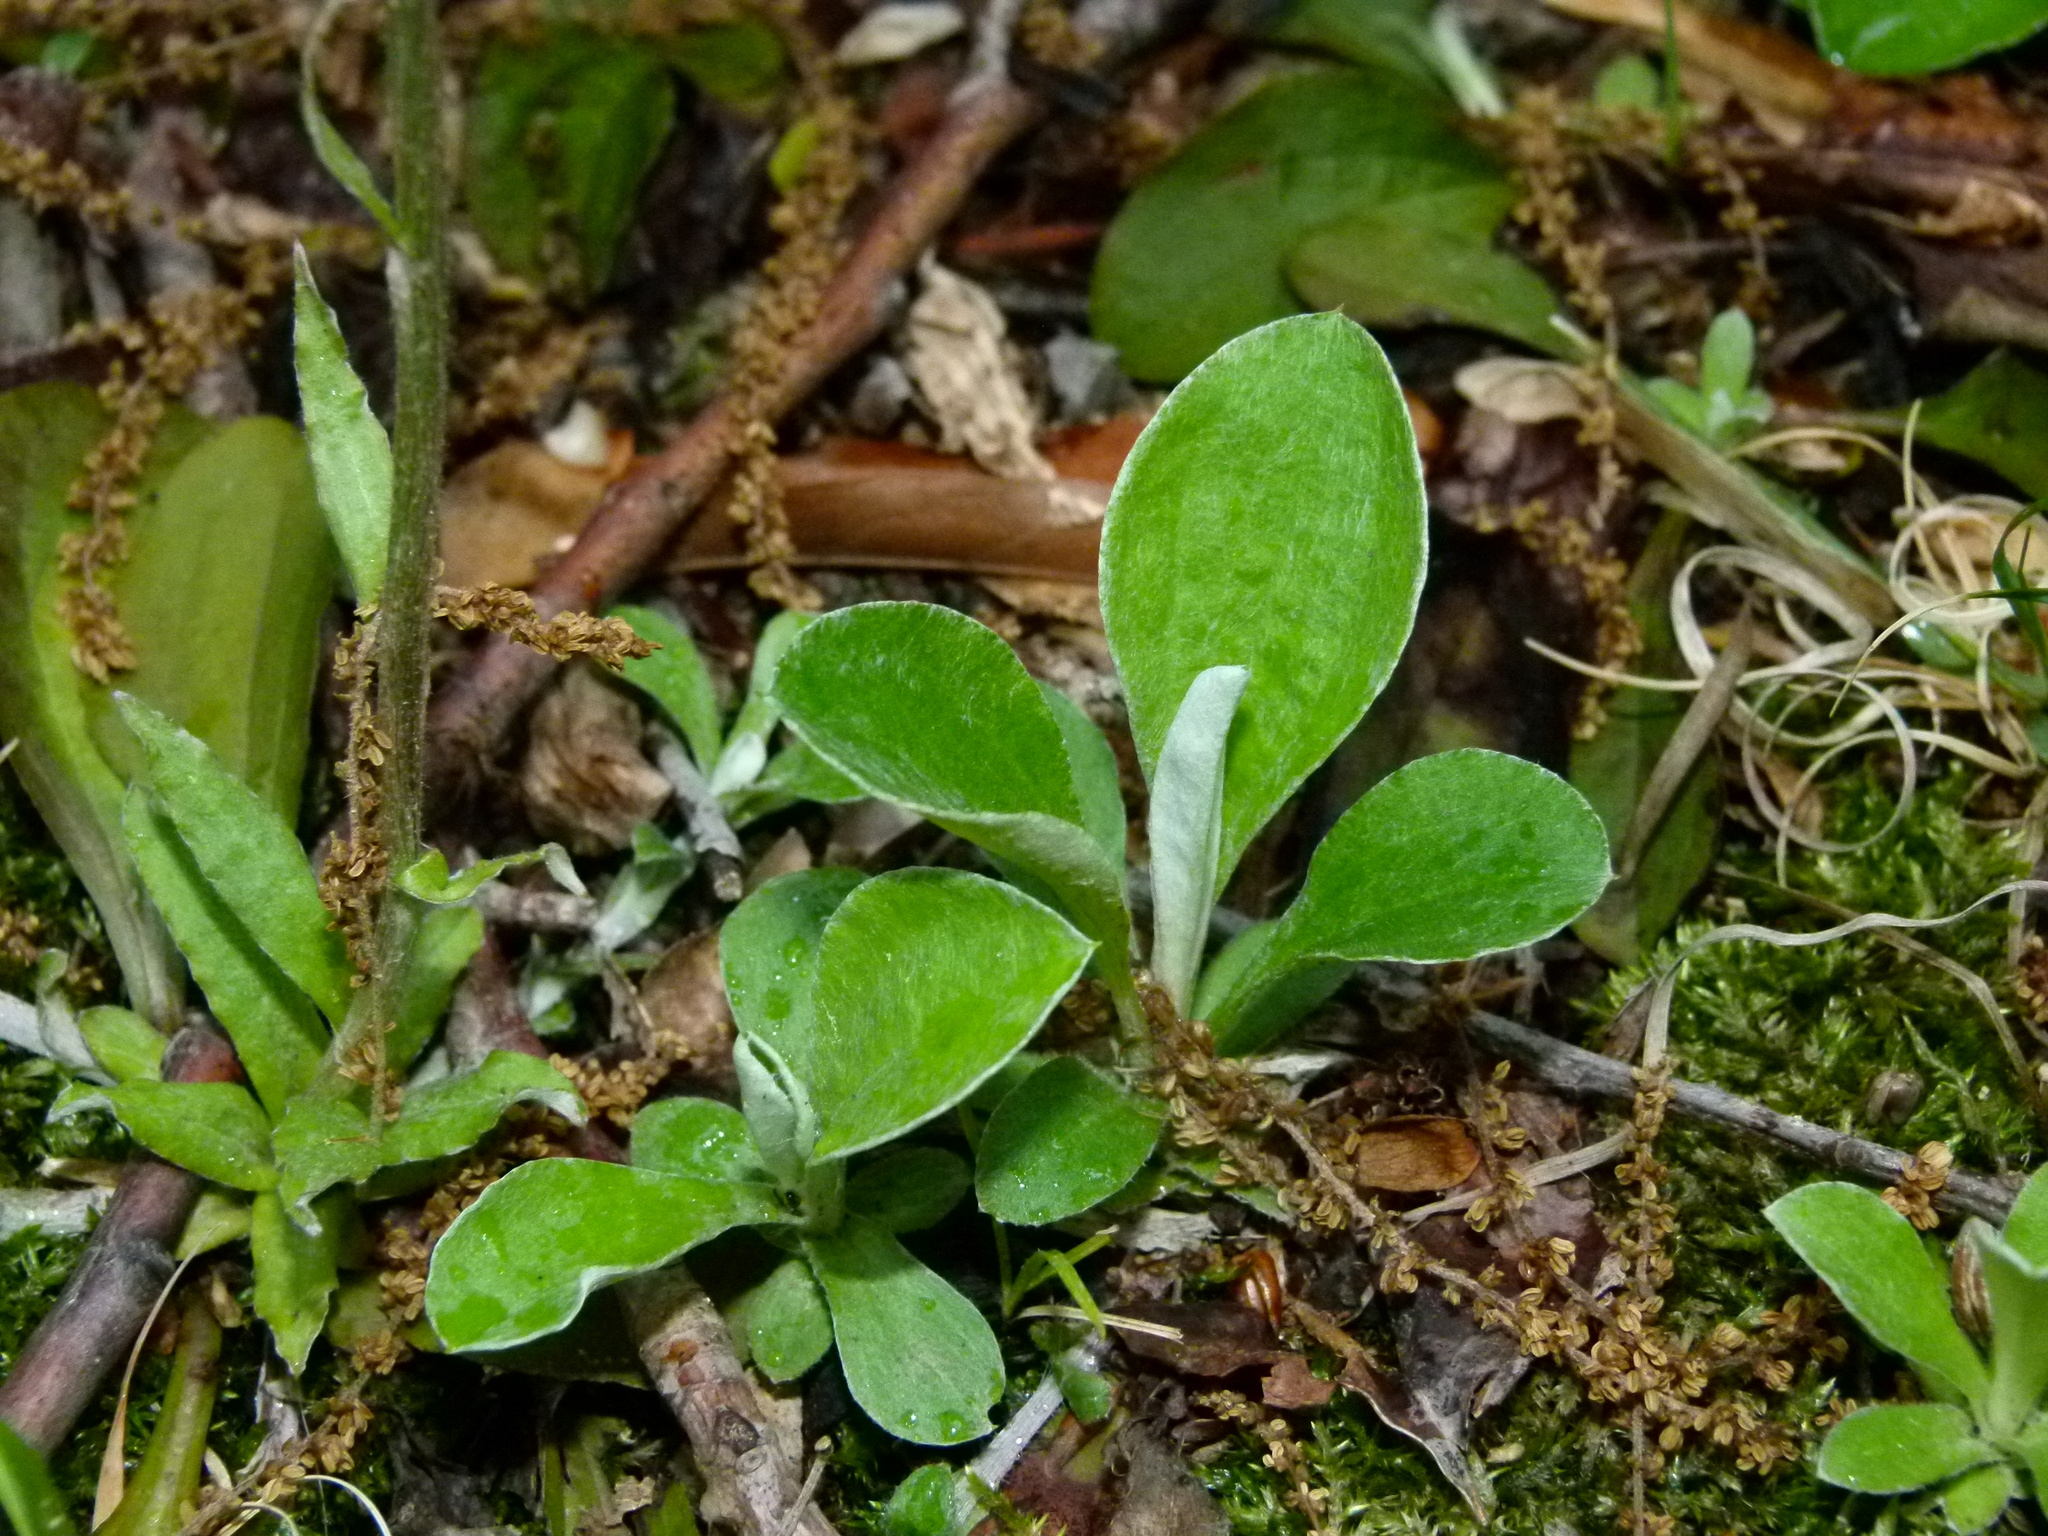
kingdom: Plantae
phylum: Tracheophyta
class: Magnoliopsida
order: Asterales
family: Asteraceae
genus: Antennaria
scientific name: Antennaria plantaginifolia
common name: Plantain-leaved pussytoes
